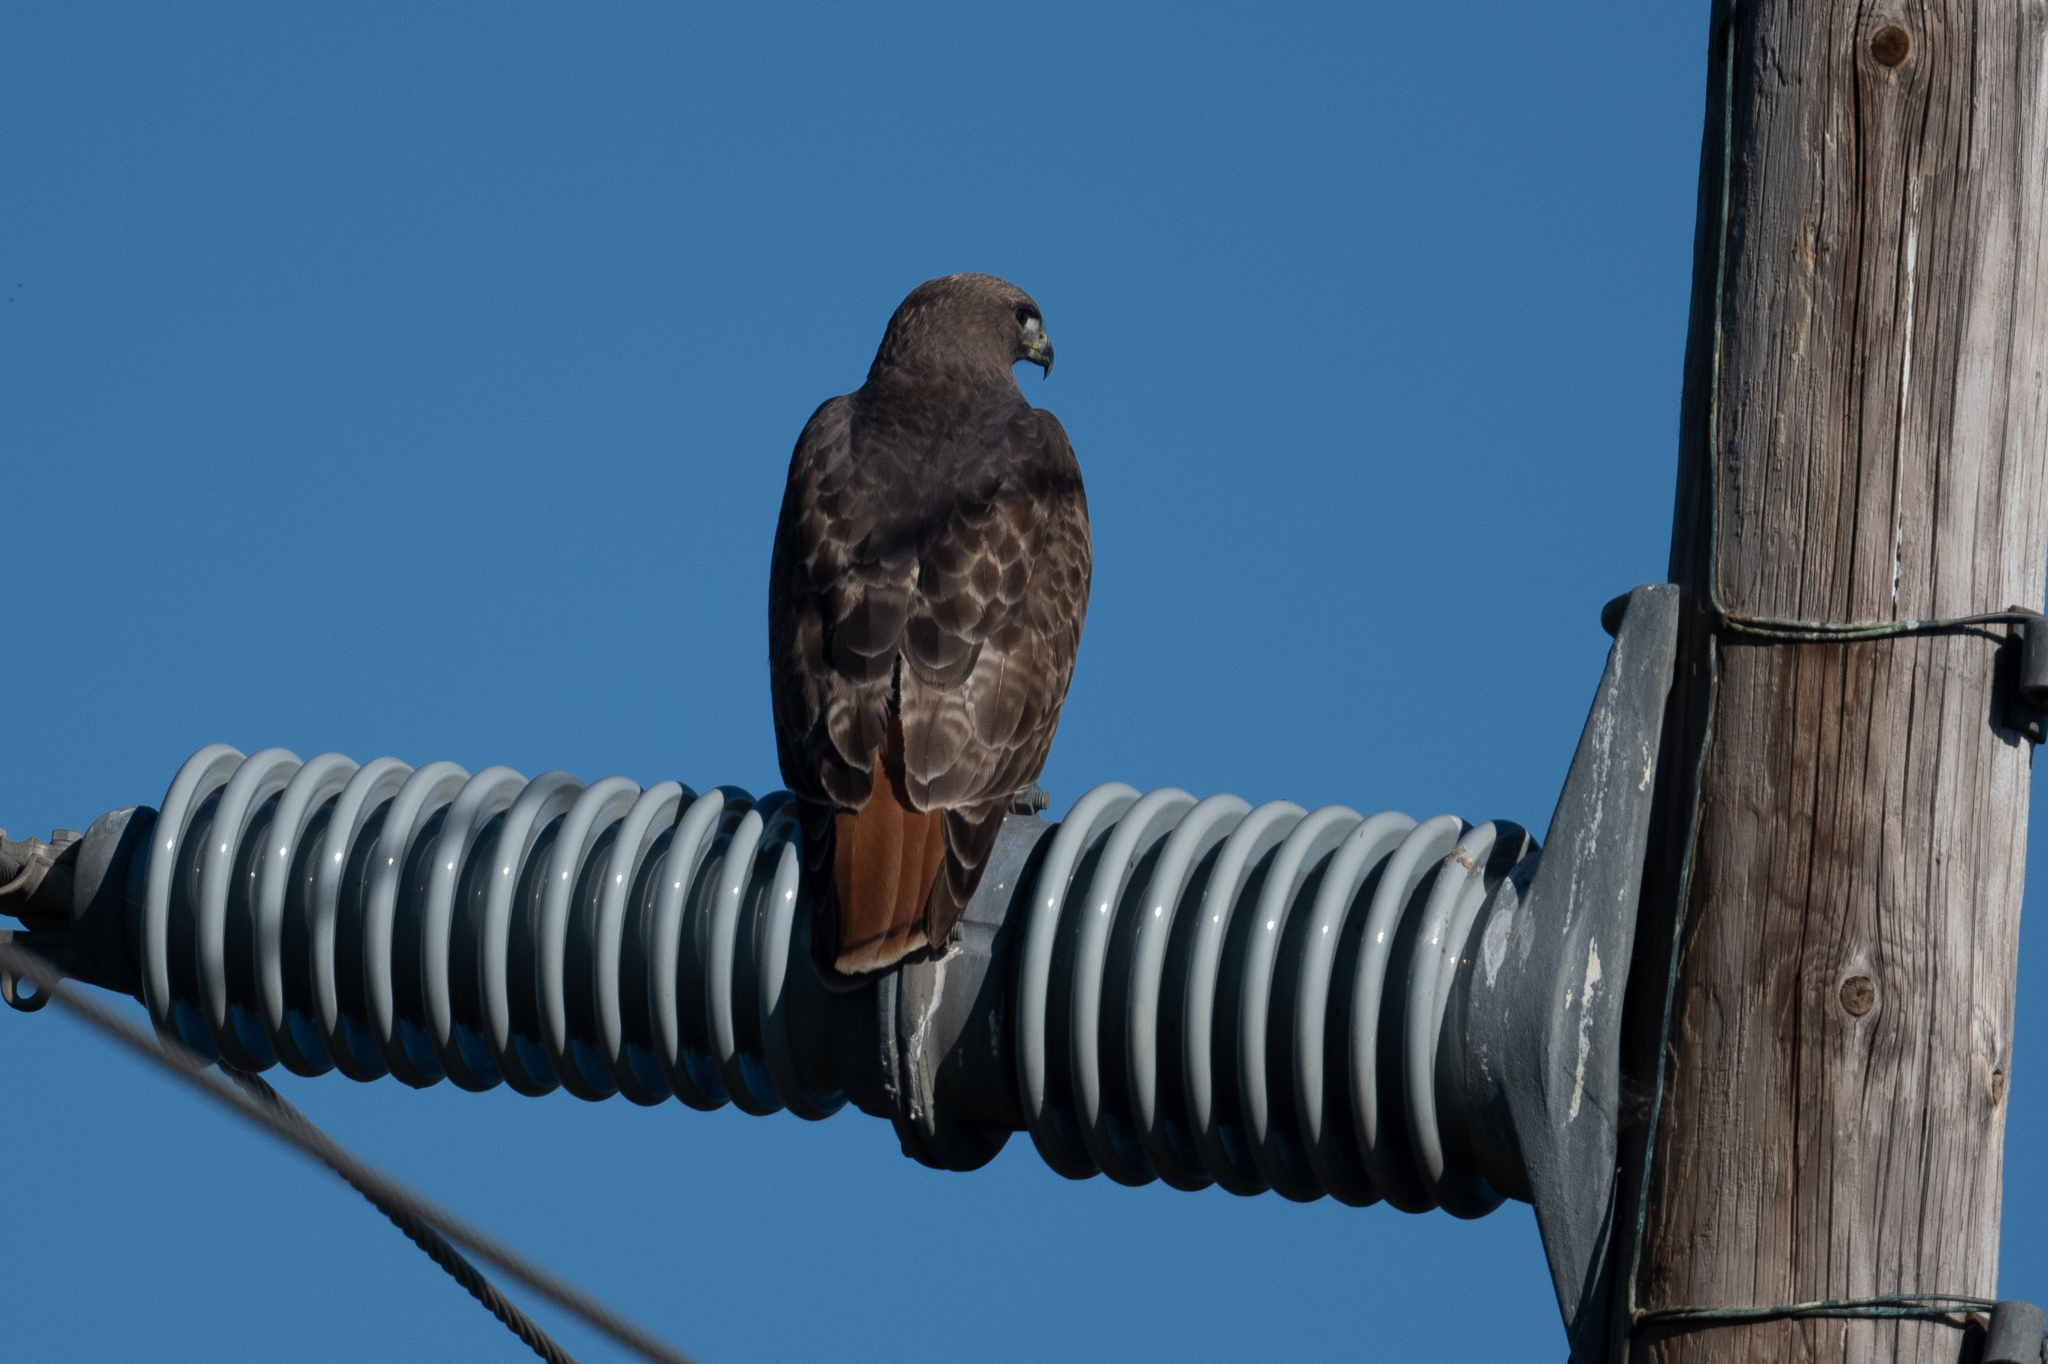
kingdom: Animalia
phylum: Chordata
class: Aves
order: Accipitriformes
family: Accipitridae
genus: Buteo
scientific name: Buteo jamaicensis
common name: Red-tailed hawk
